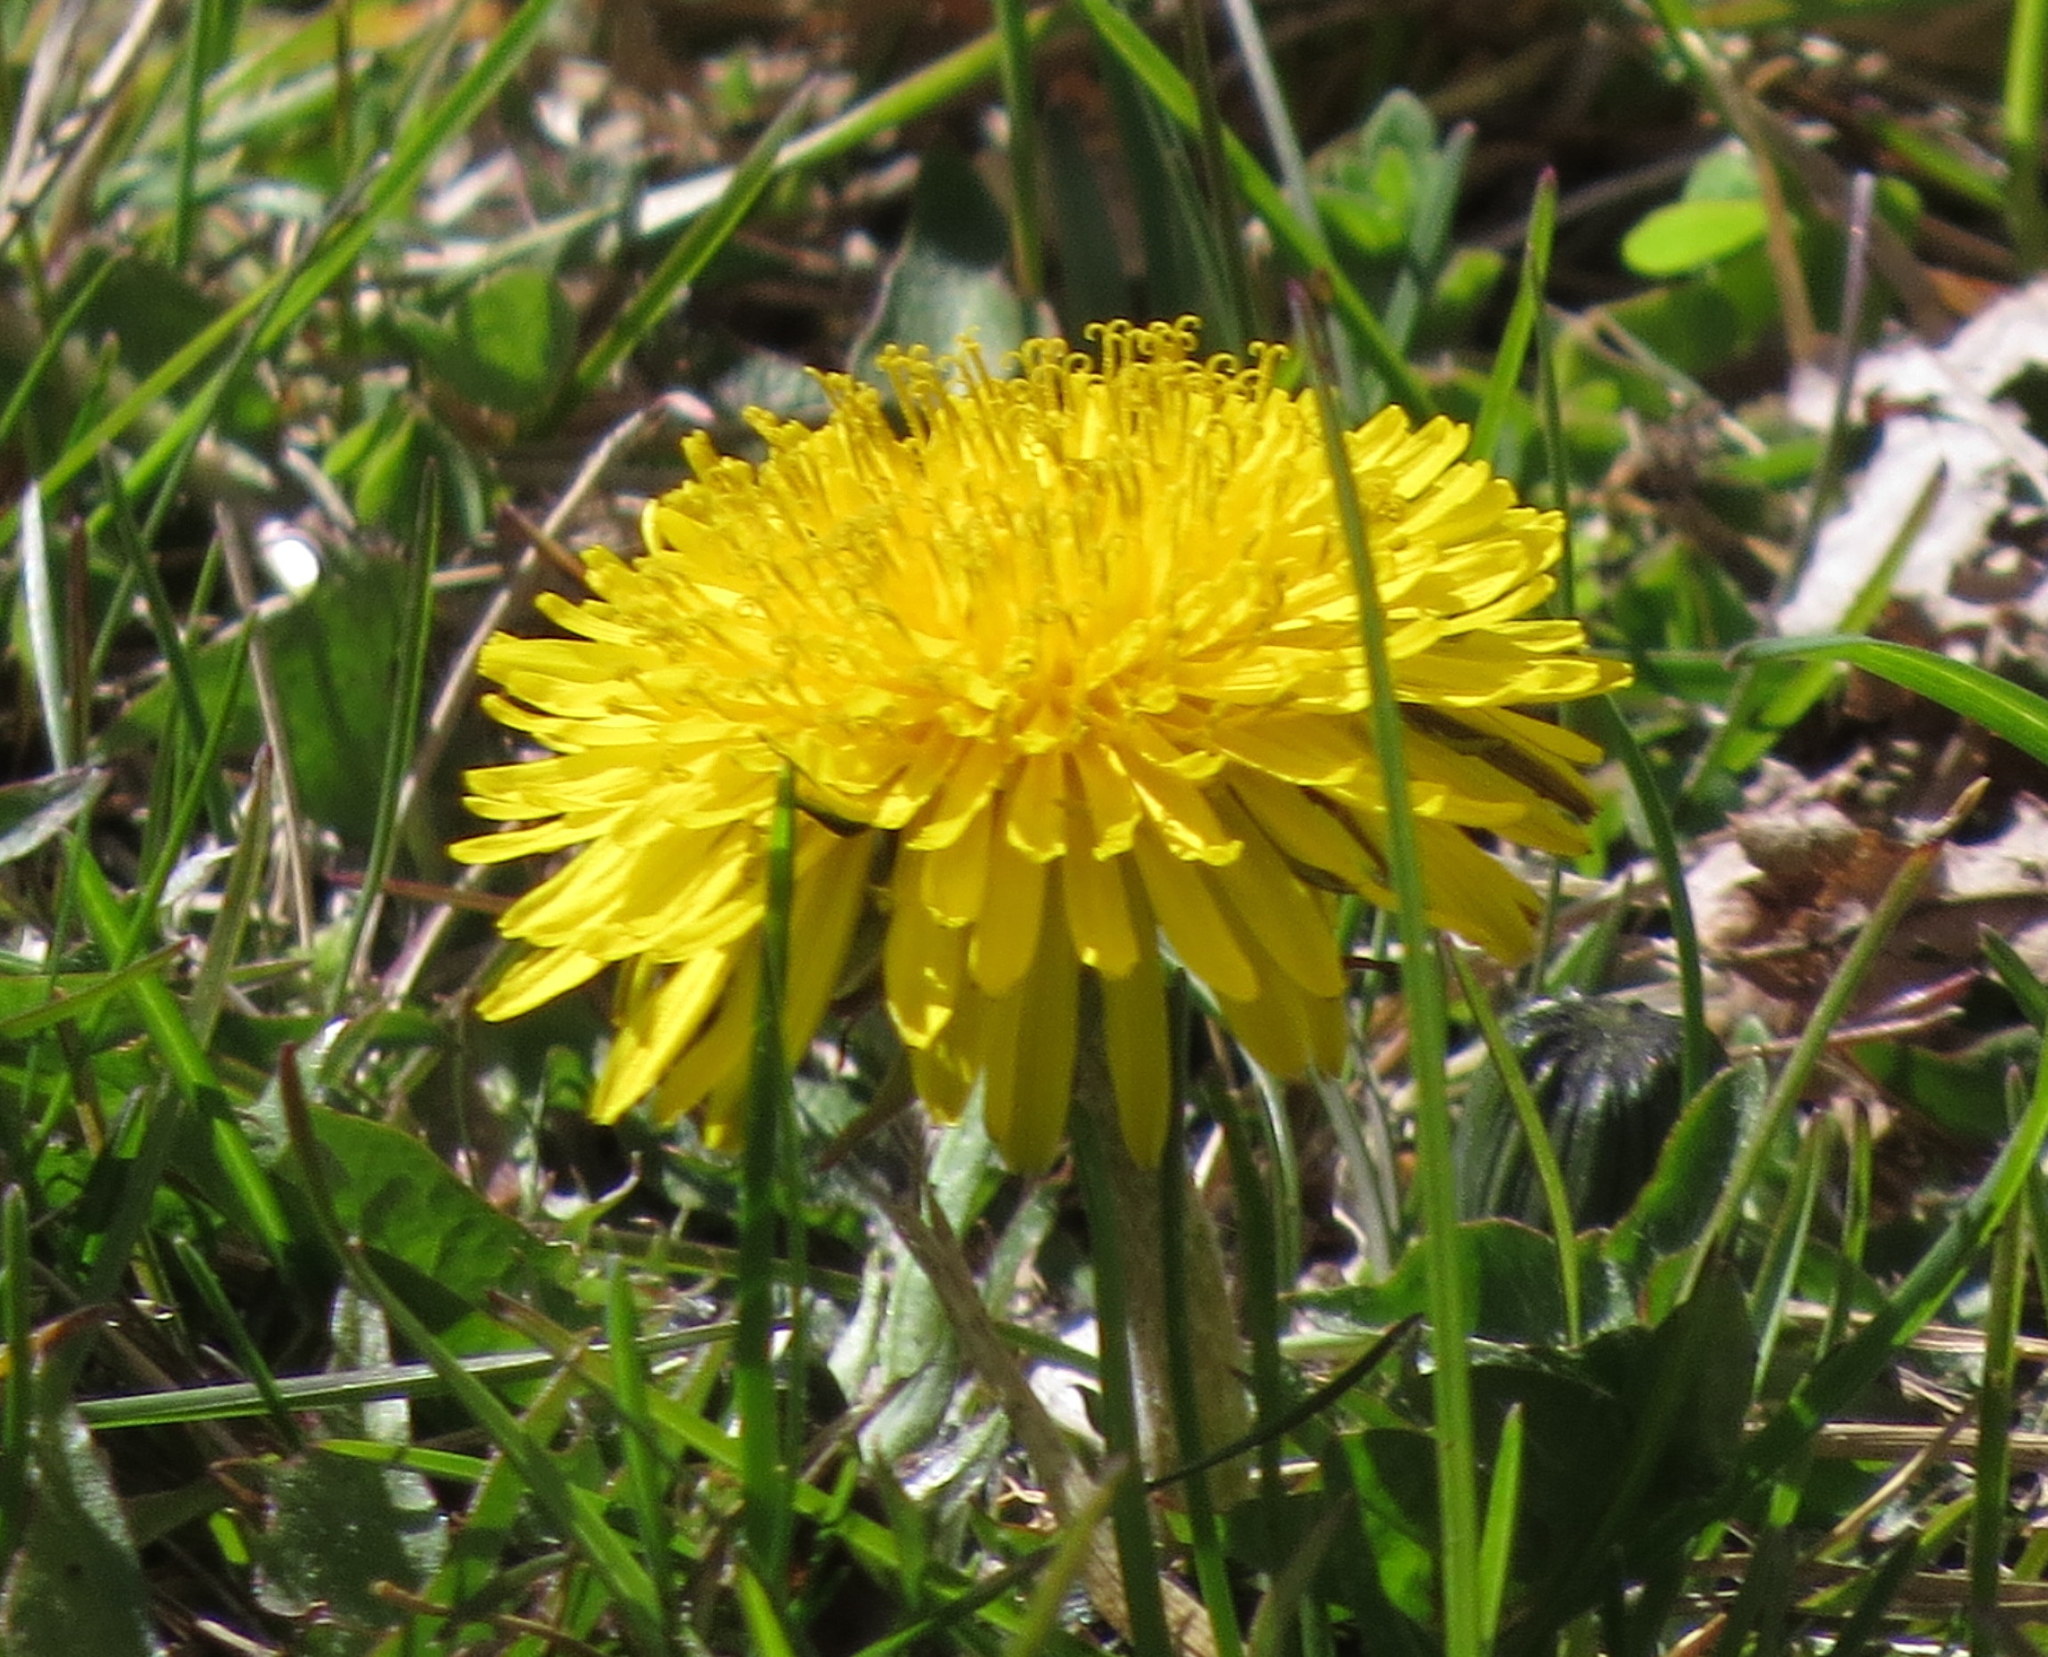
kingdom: Plantae
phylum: Tracheophyta
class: Magnoliopsida
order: Asterales
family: Asteraceae
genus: Taraxacum
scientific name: Taraxacum officinale
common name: Common dandelion
